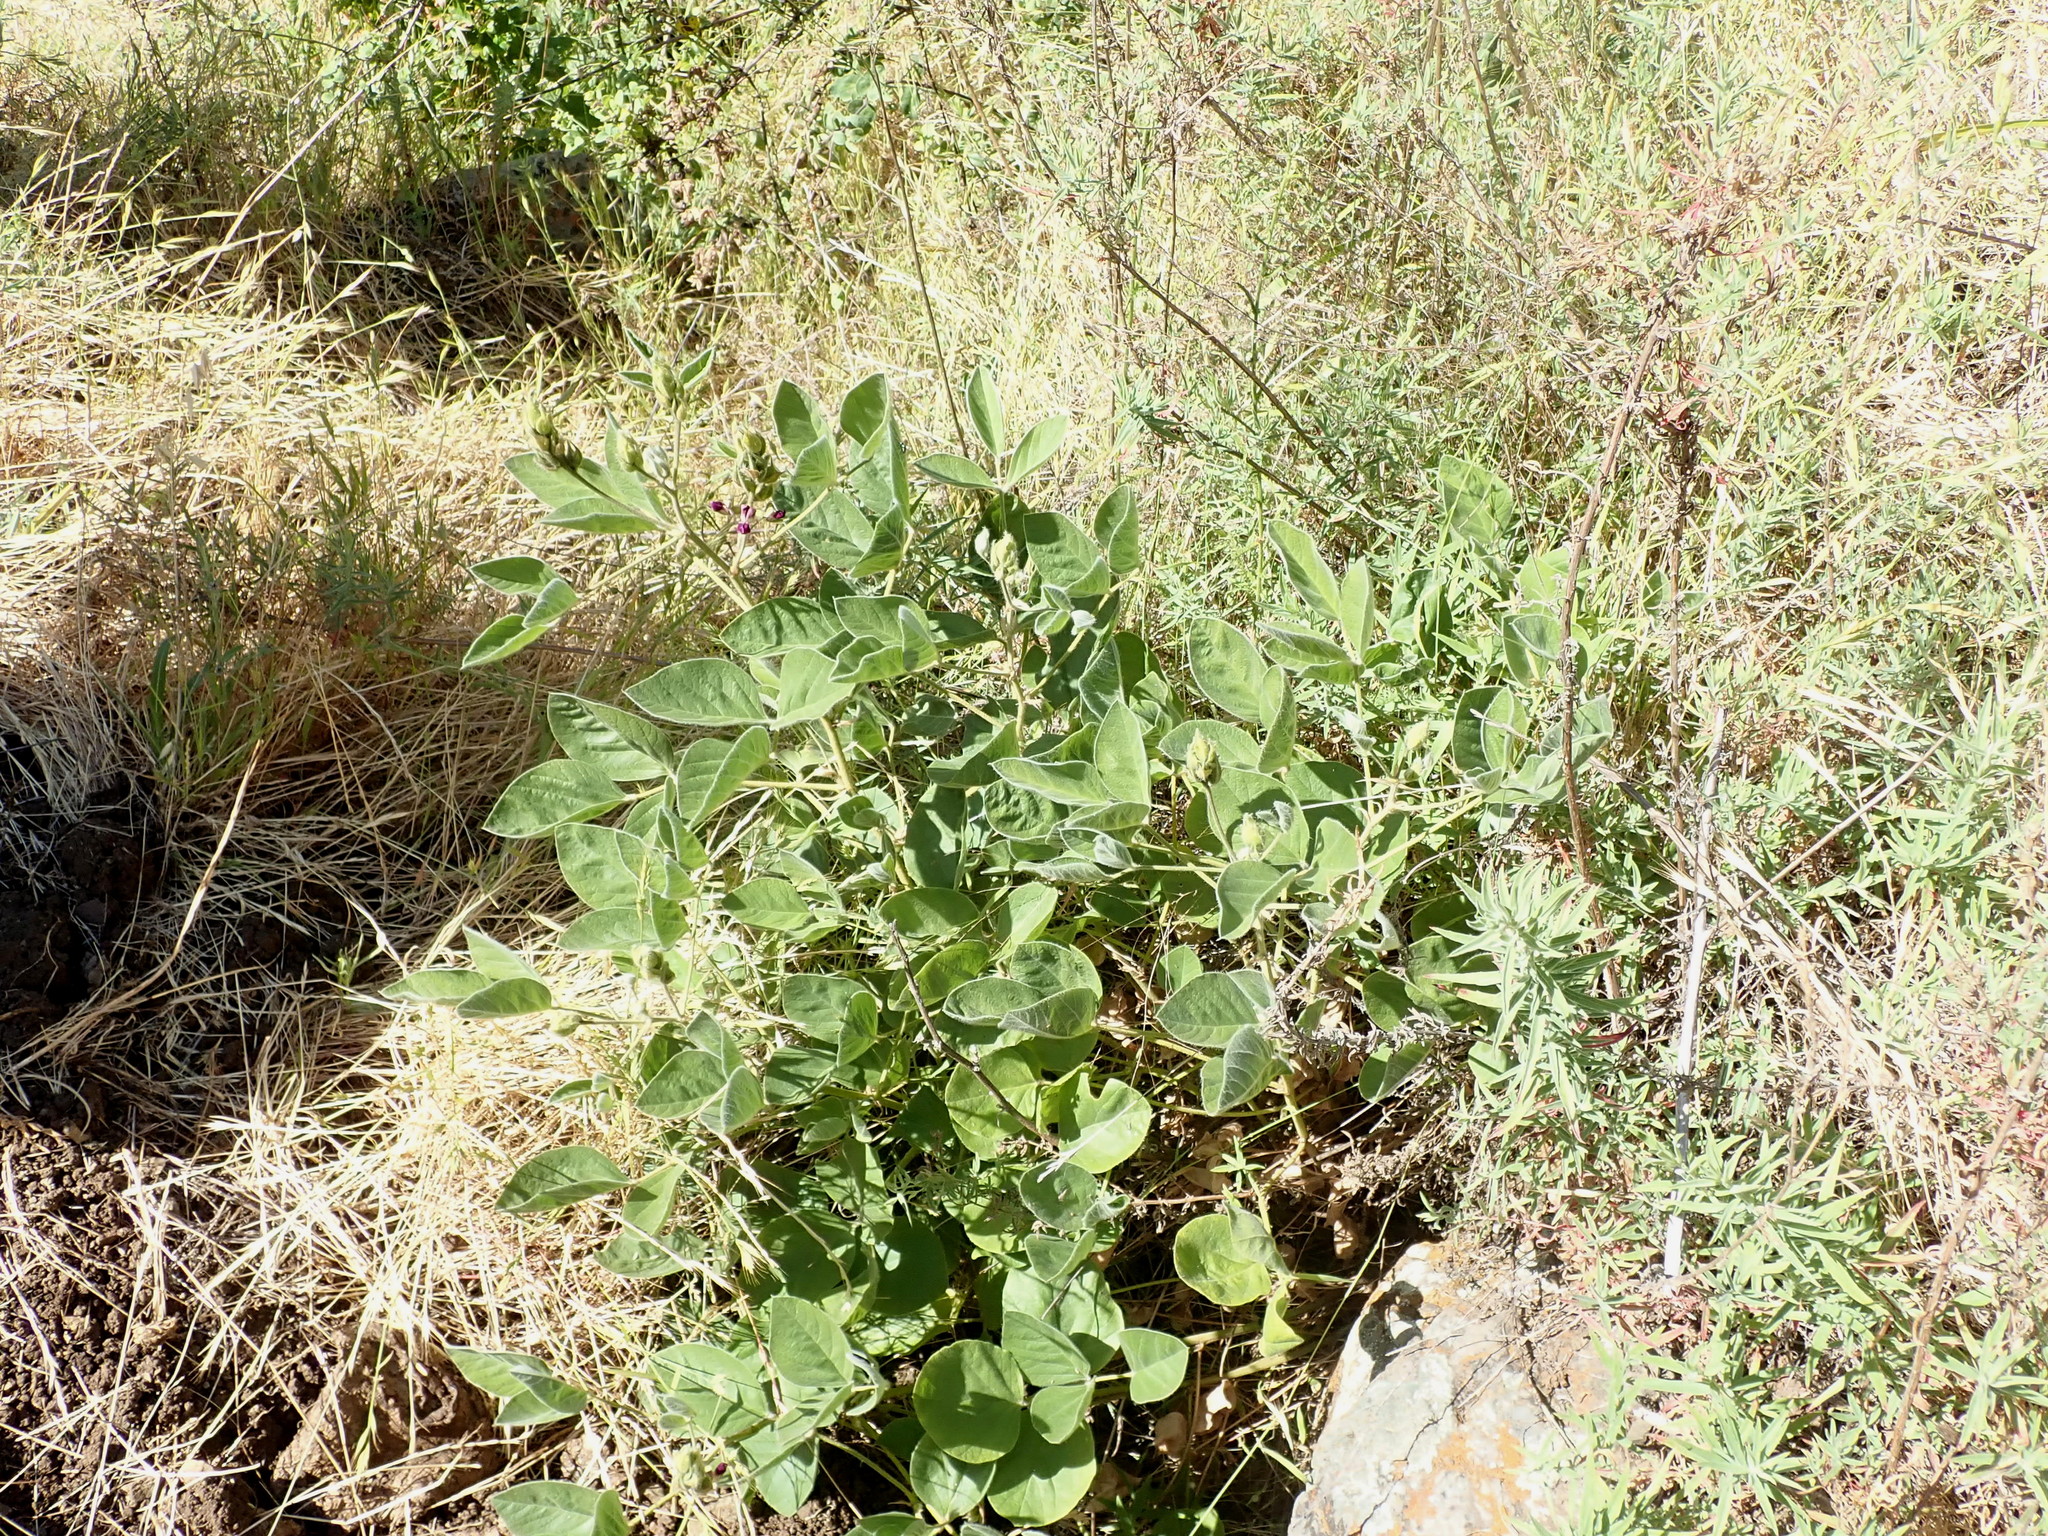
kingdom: Plantae
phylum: Tracheophyta
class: Magnoliopsida
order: Fabales
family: Fabaceae
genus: Hoita
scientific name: Hoita strobilina
